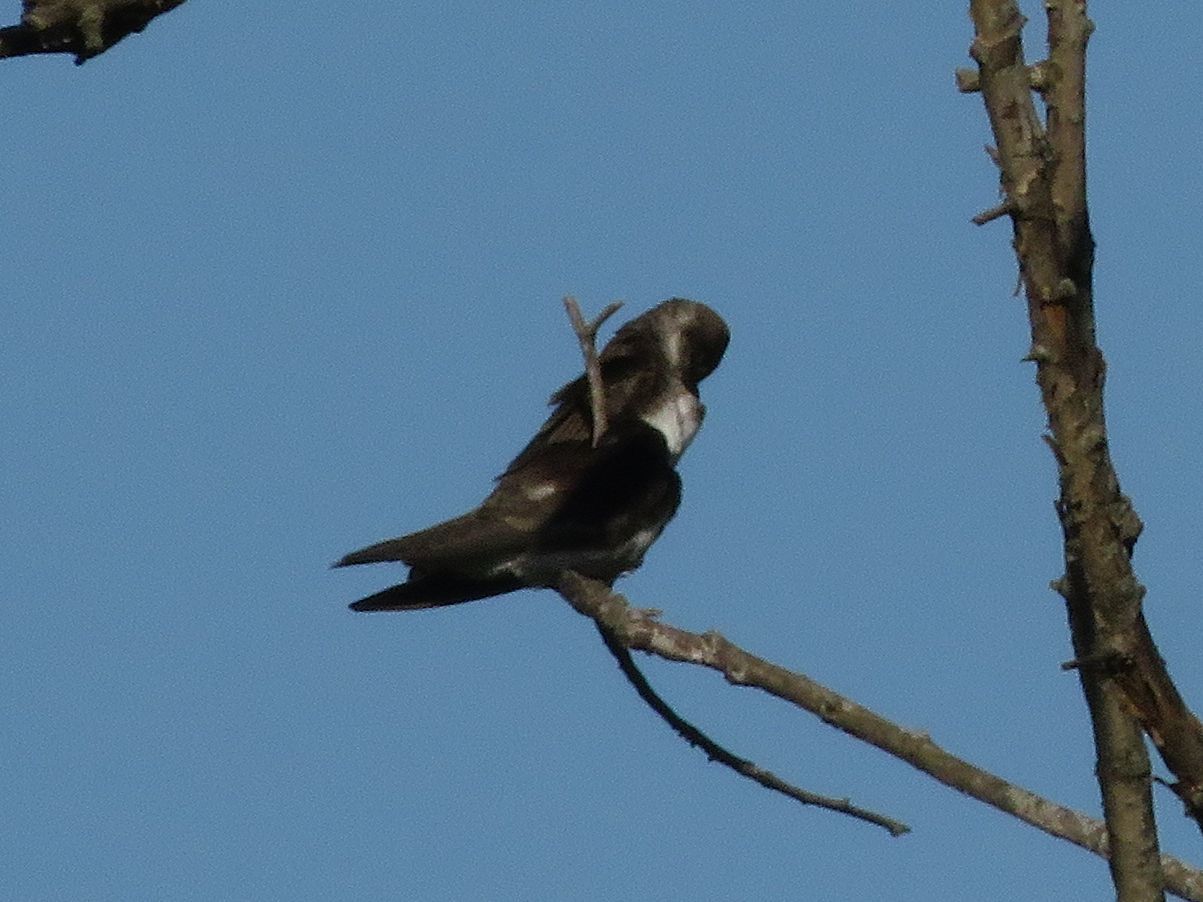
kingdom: Animalia
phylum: Chordata
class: Aves
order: Passeriformes
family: Hirundinidae
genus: Progne
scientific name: Progne tapera
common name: Brown-chested martin
